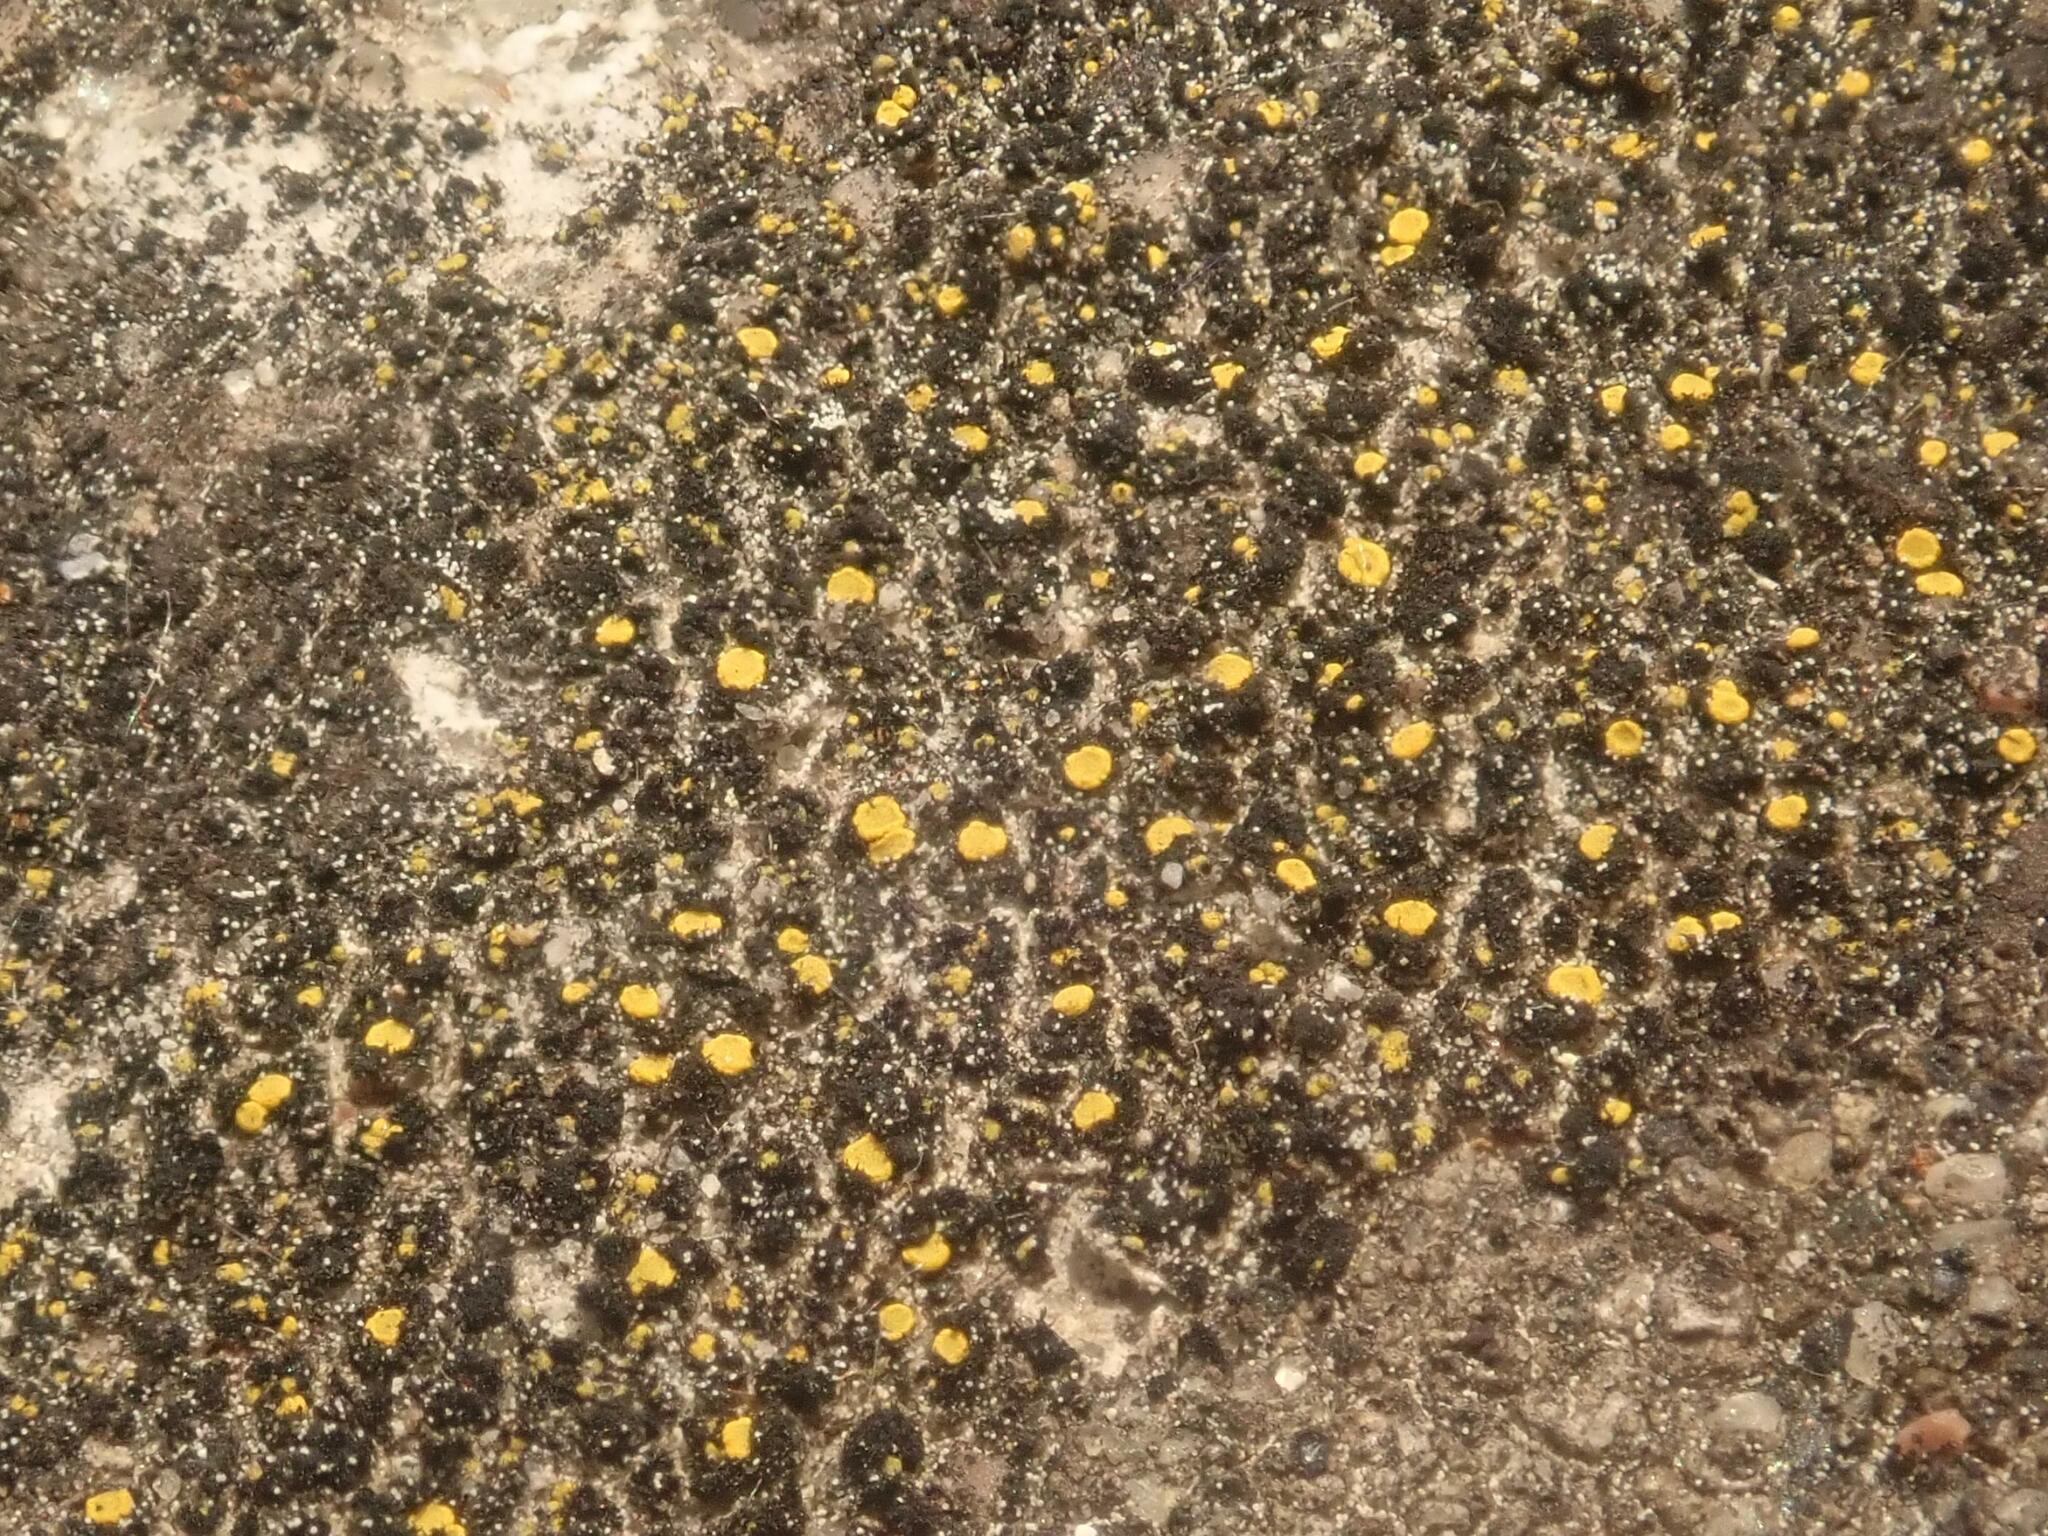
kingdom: Fungi
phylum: Ascomycota
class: Candelariomycetes
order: Candelariales
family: Candelariaceae
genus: Candelariella
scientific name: Candelariella aurella
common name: Hidden goldspeck lichen
